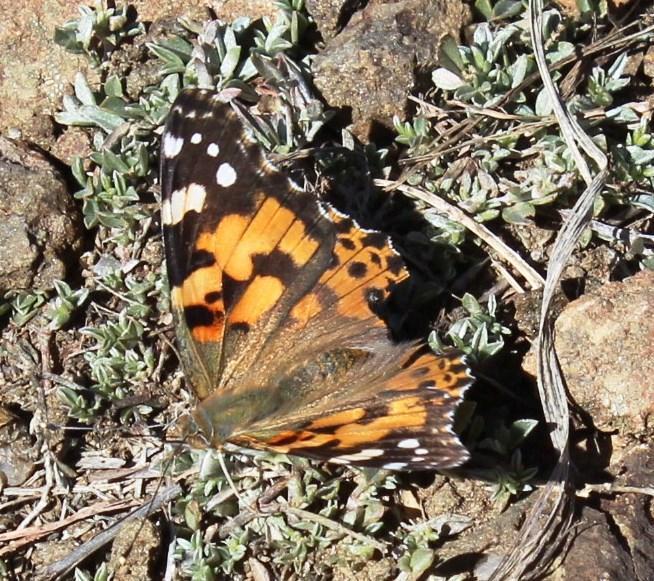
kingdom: Animalia
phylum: Arthropoda
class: Insecta
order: Lepidoptera
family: Nymphalidae
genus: Vanessa
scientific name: Vanessa cardui
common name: Painted lady
